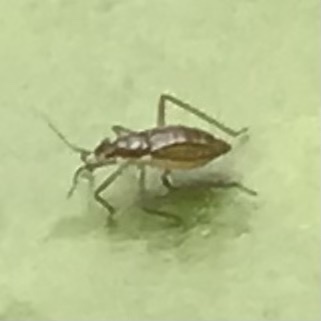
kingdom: Animalia
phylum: Arthropoda
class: Insecta
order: Hemiptera
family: Mesoveliidae
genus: Mesovelia
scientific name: Mesovelia
